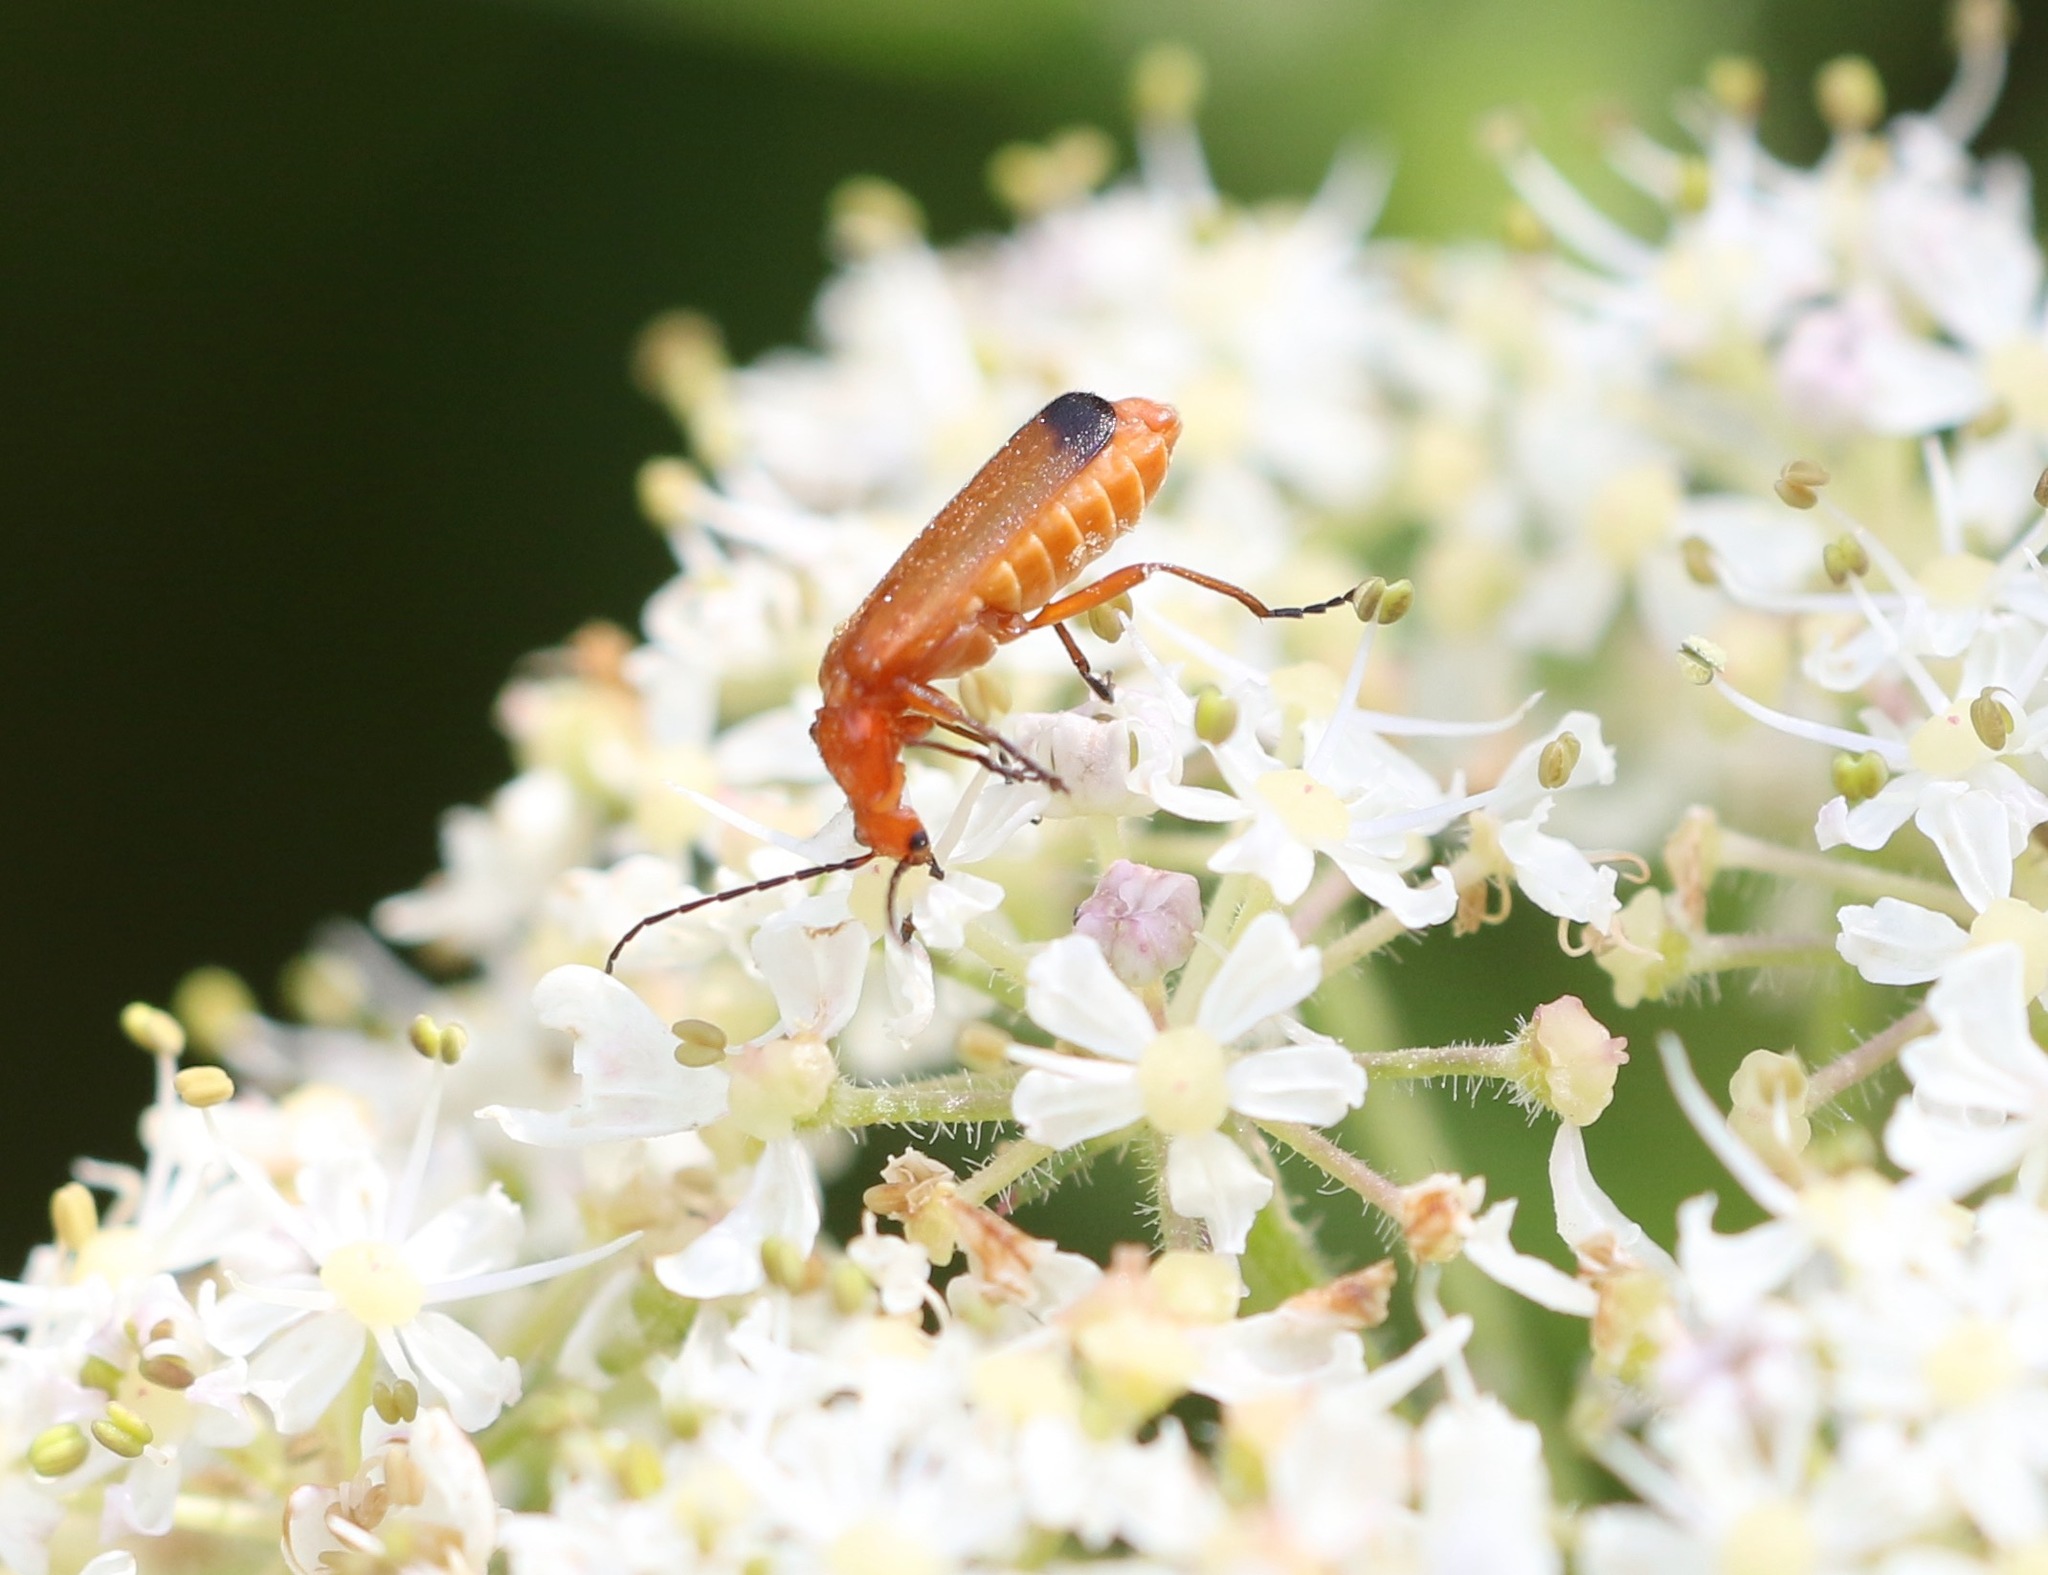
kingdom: Animalia
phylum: Arthropoda
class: Insecta
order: Coleoptera
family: Cantharidae
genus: Rhagonycha
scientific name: Rhagonycha fulva
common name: Common red soldier beetle
